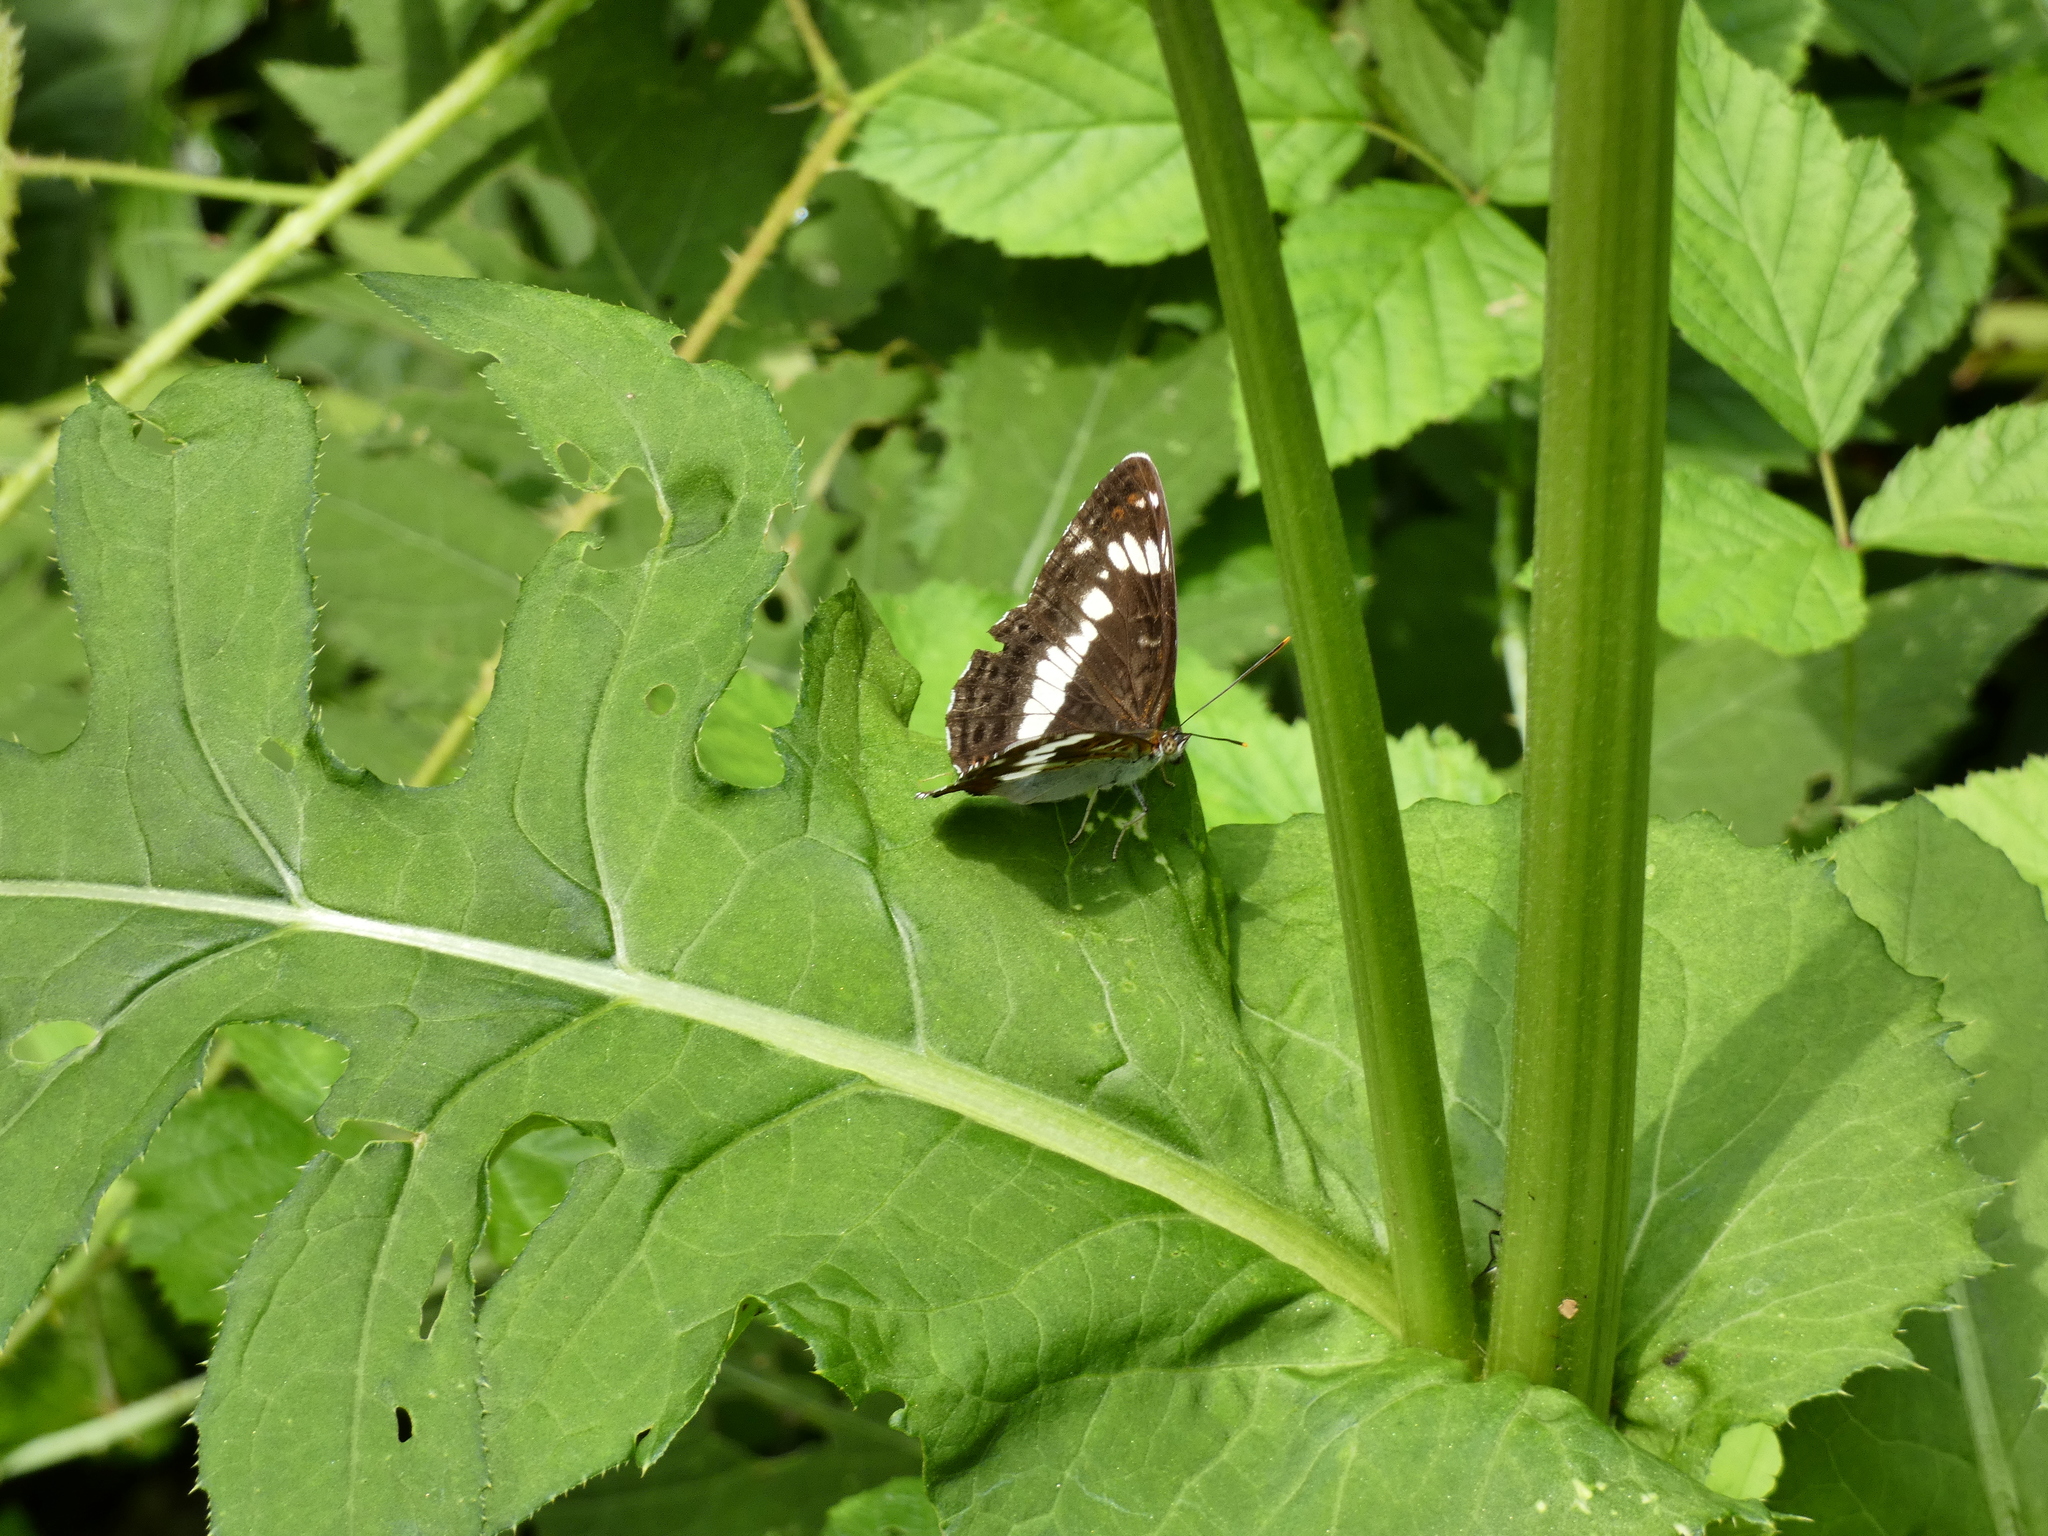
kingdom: Animalia
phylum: Arthropoda
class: Insecta
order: Lepidoptera
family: Nymphalidae
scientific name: Nymphalidae
